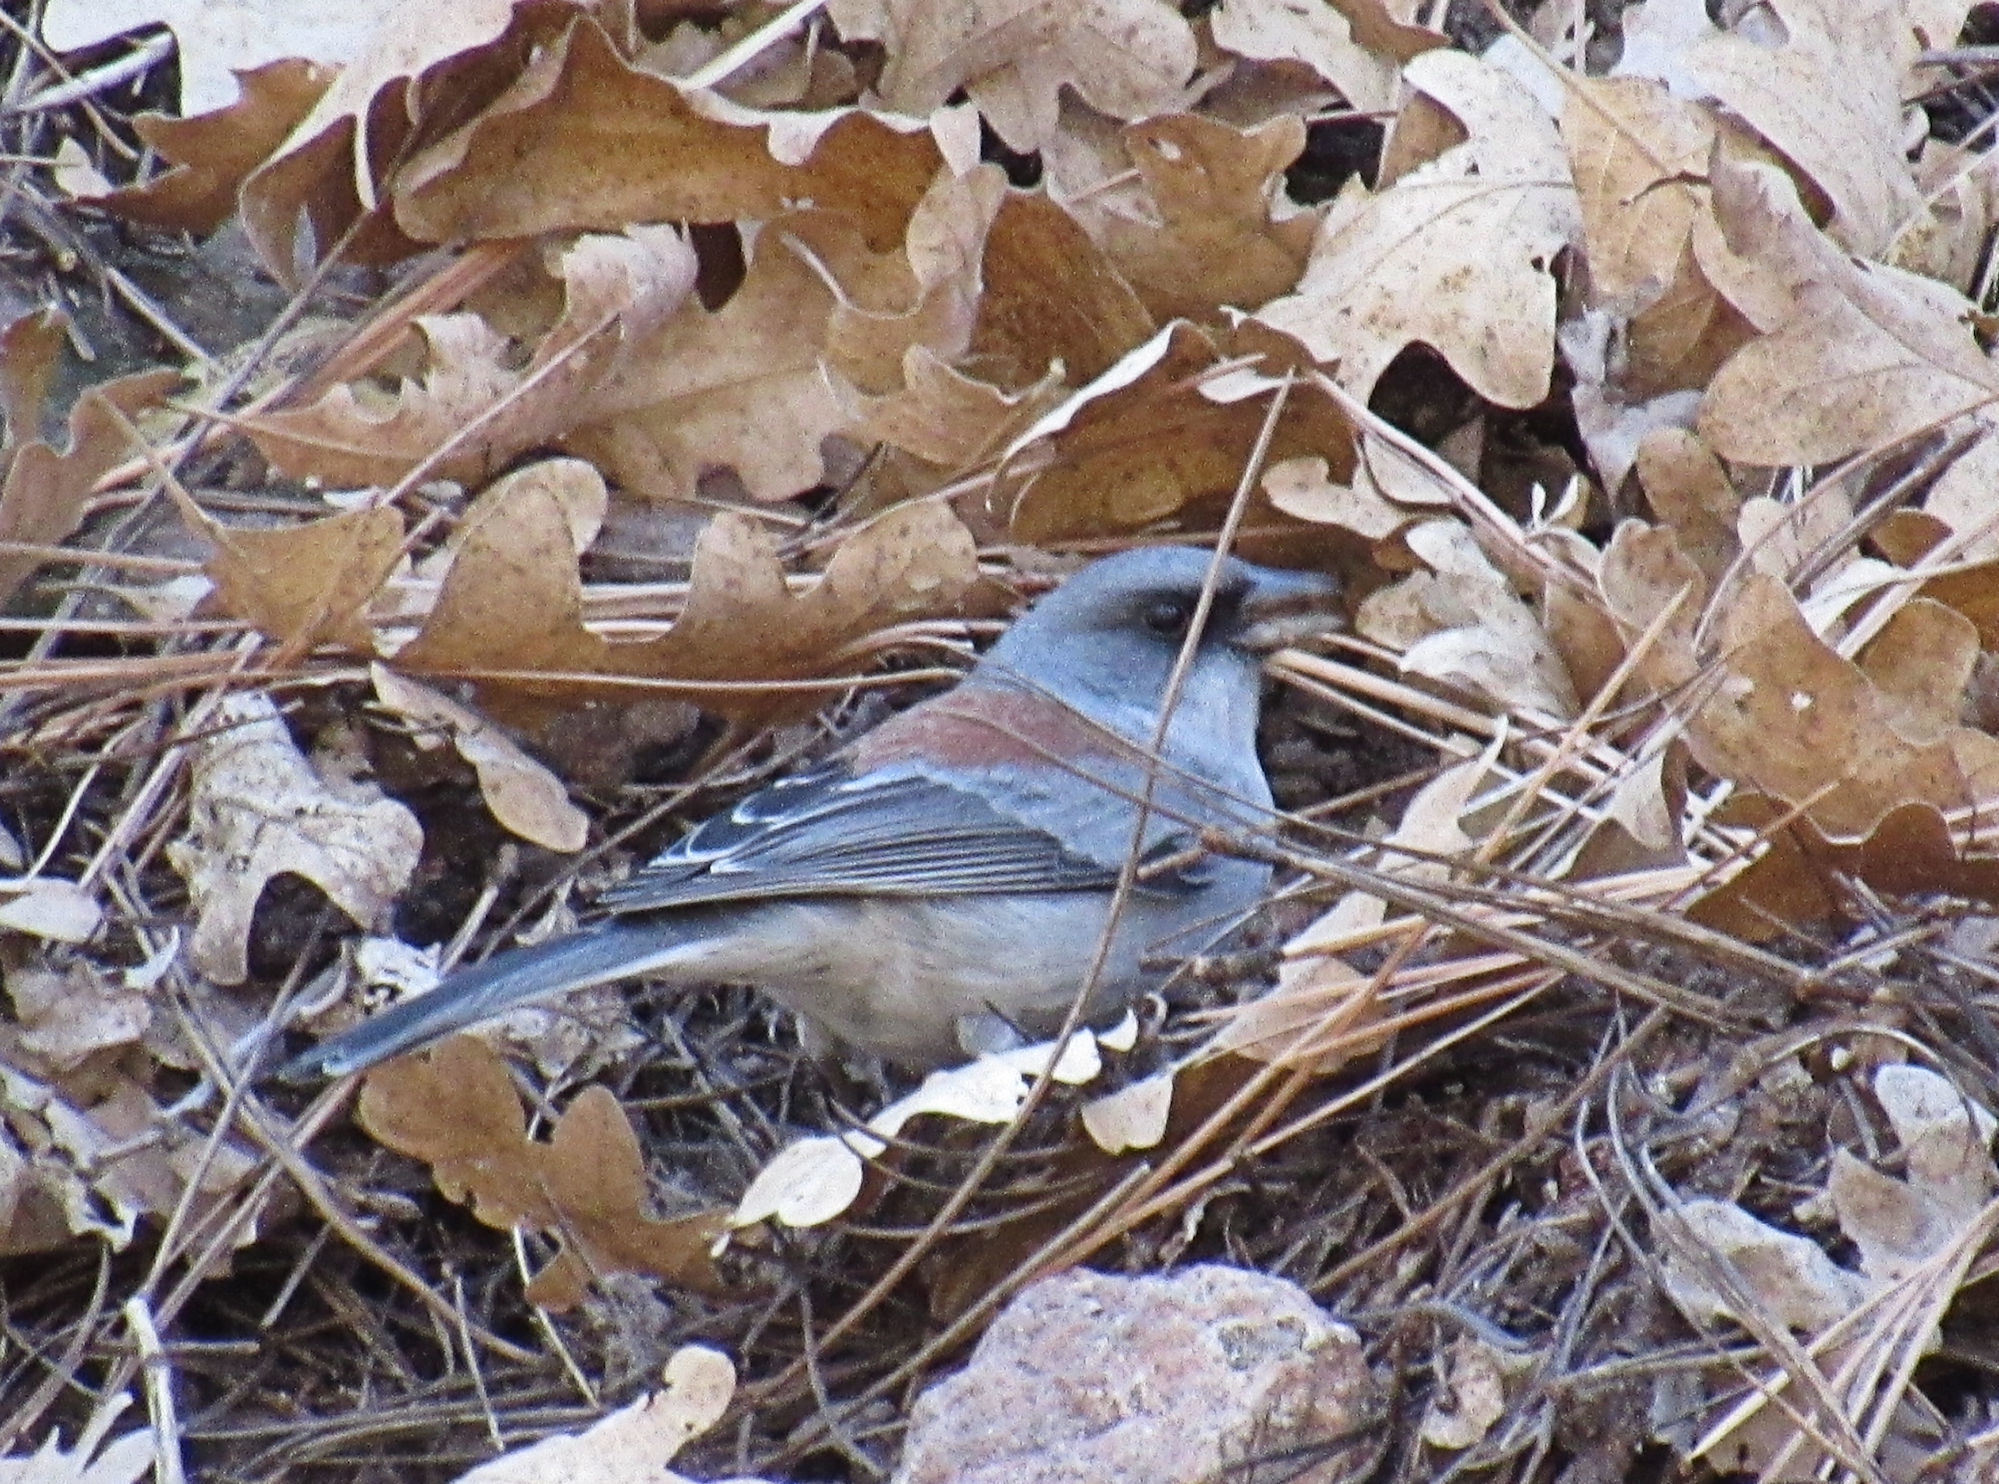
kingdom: Animalia
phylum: Chordata
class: Aves
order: Passeriformes
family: Passerellidae
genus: Junco
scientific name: Junco hyemalis
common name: Dark-eyed junco
